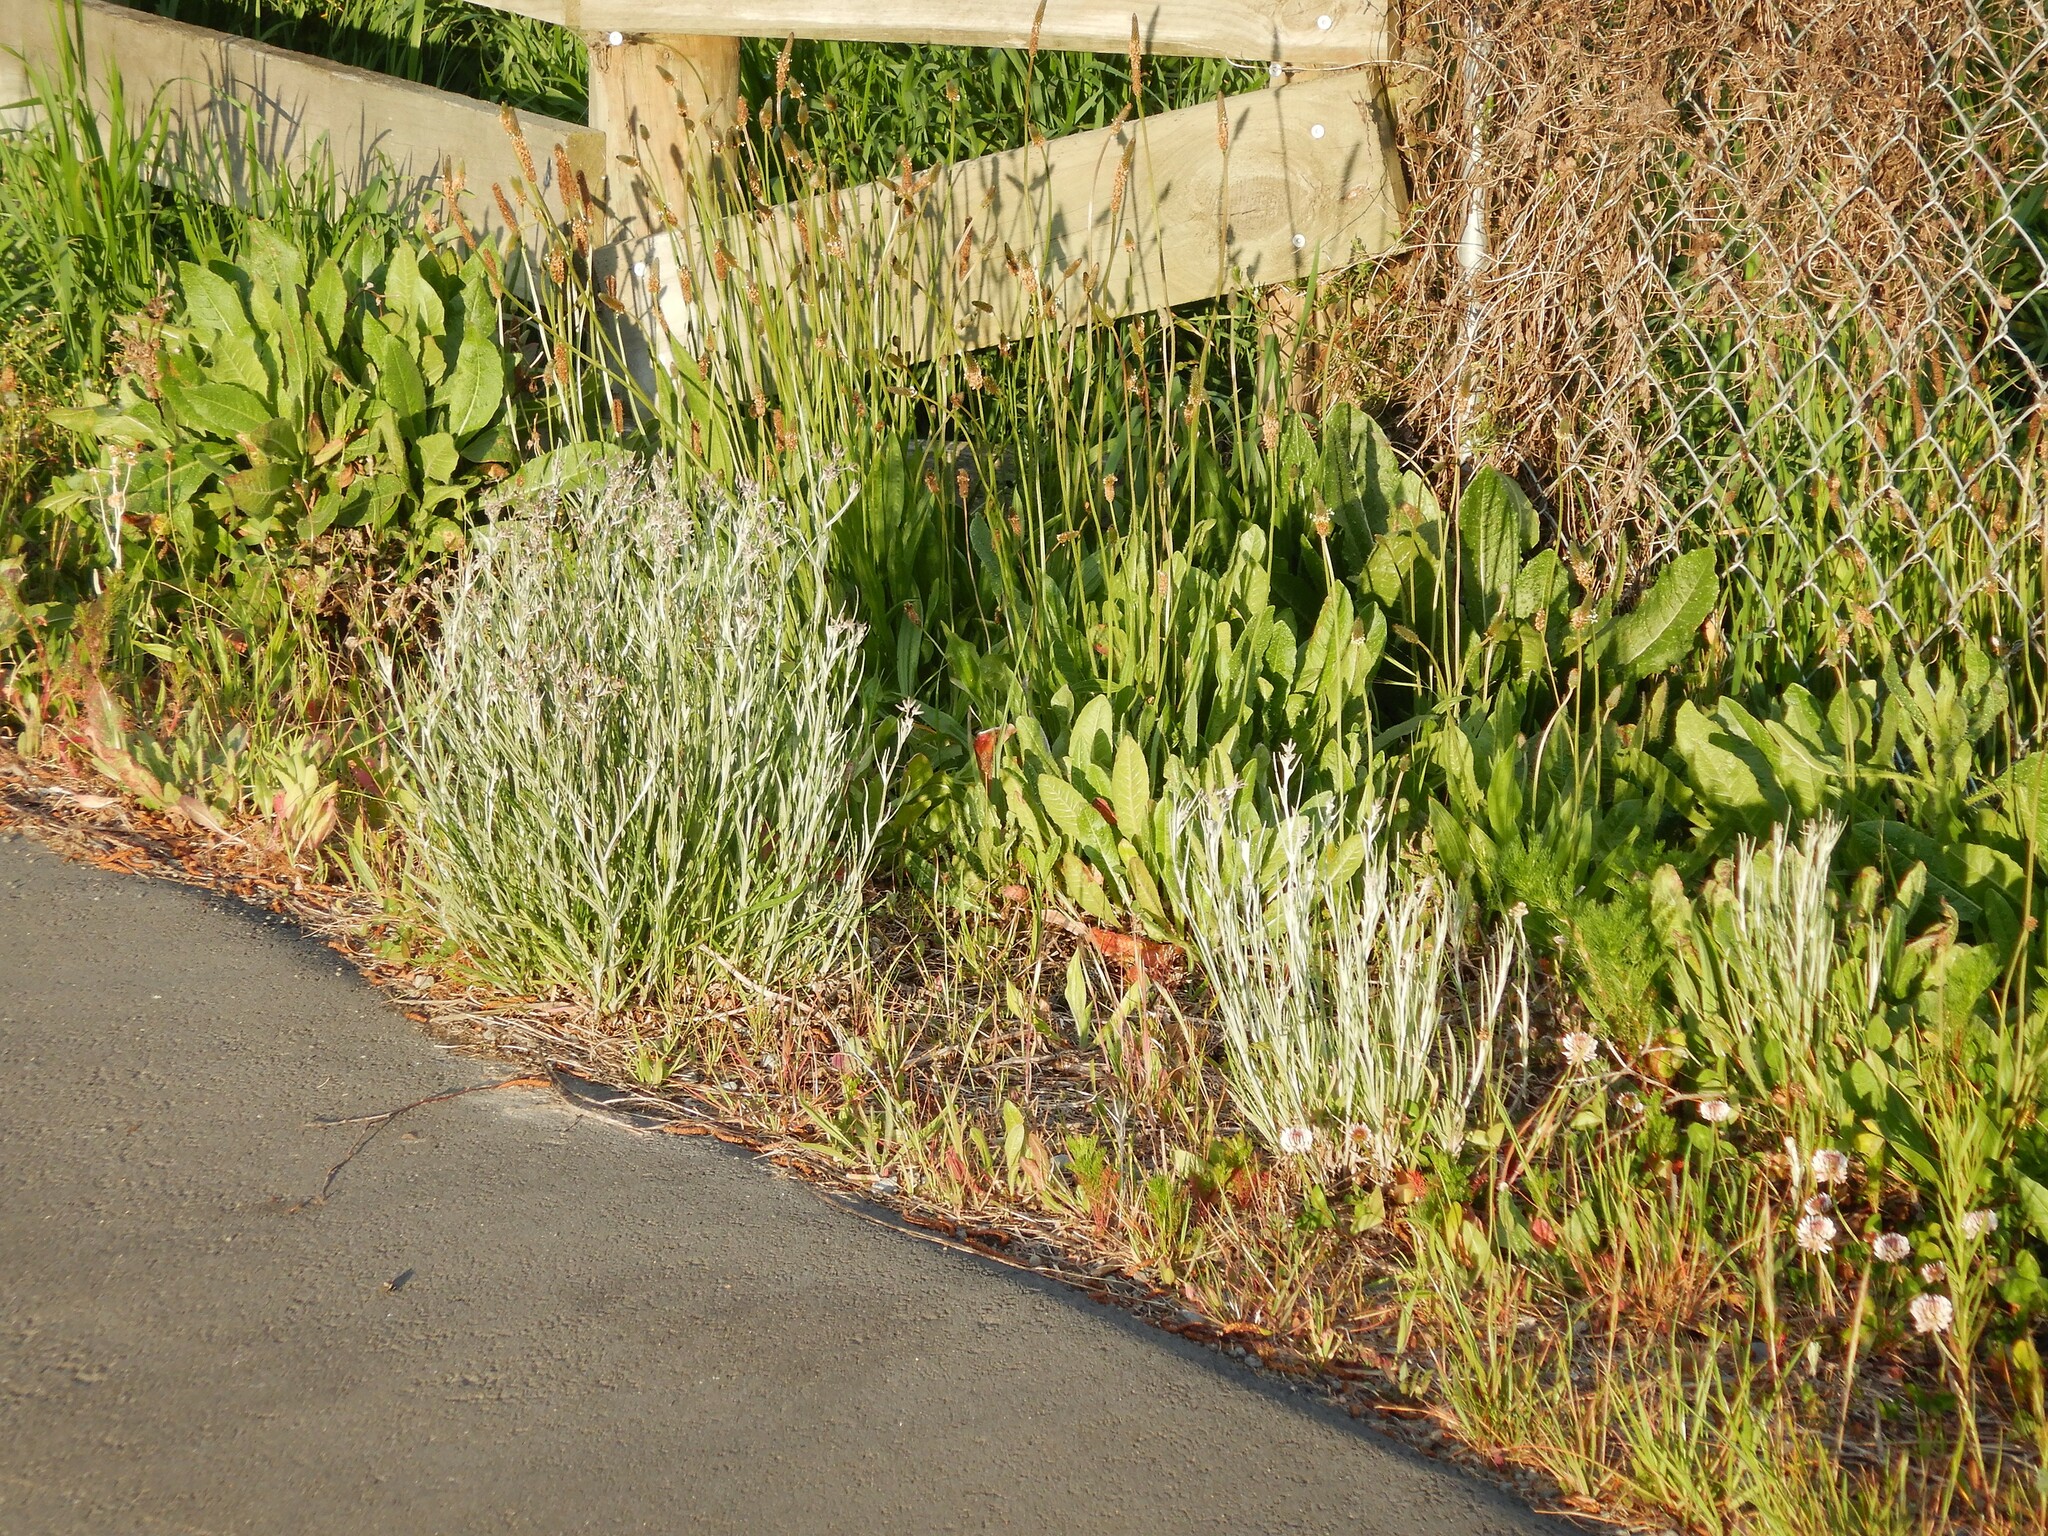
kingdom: Plantae
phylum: Tracheophyta
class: Magnoliopsida
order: Asterales
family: Asteraceae
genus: Senecio
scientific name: Senecio quadridentatus
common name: Cotton fireweed
